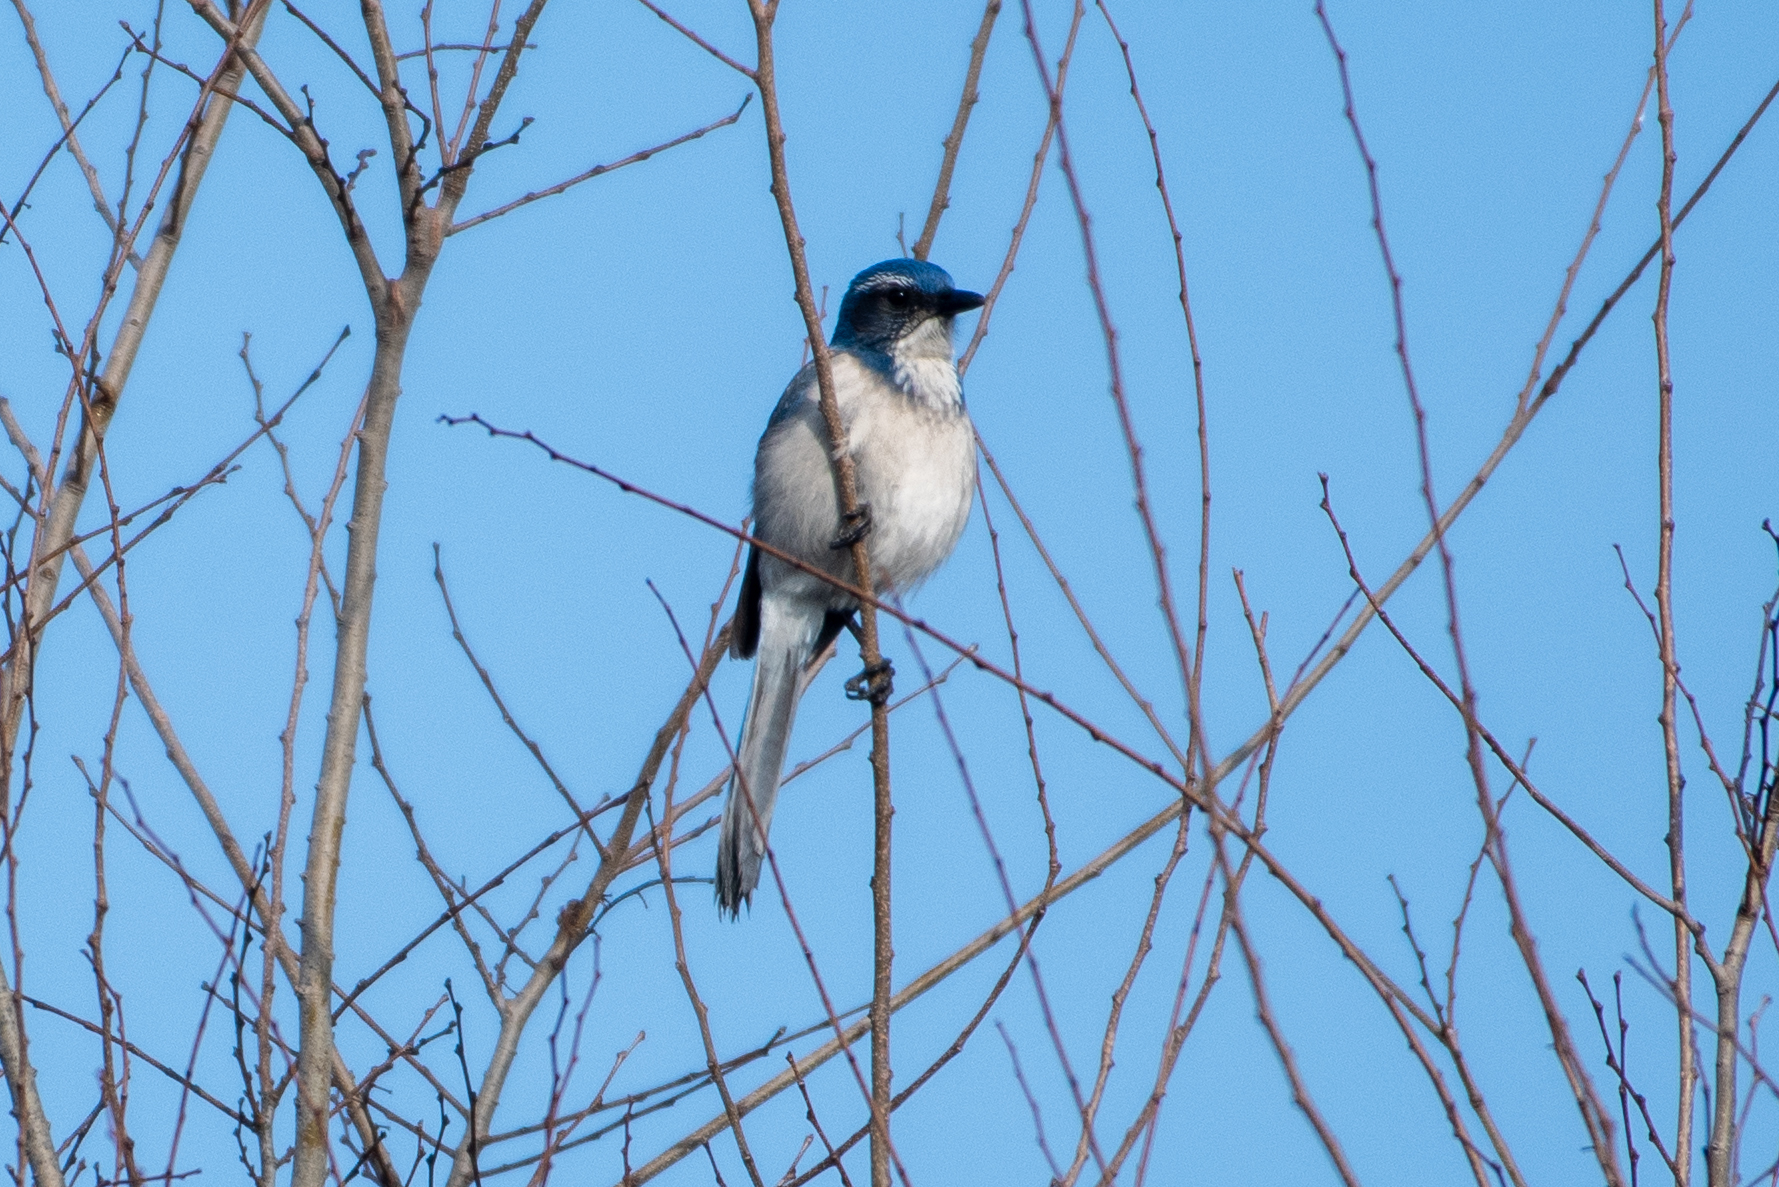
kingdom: Animalia
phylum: Chordata
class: Aves
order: Passeriformes
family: Corvidae
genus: Aphelocoma
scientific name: Aphelocoma californica
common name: California scrub-jay
